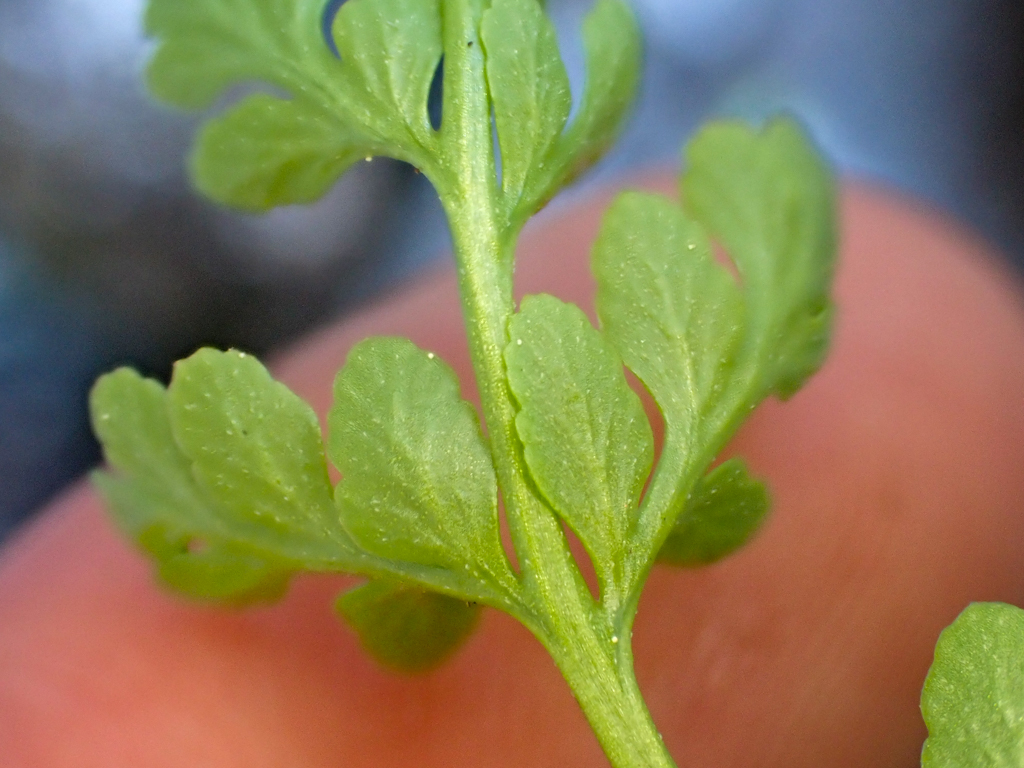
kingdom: Plantae
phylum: Tracheophyta
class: Polypodiopsida
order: Polypodiales
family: Pteridaceae
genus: Cryptogramma
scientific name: Cryptogramma acrostichoides
